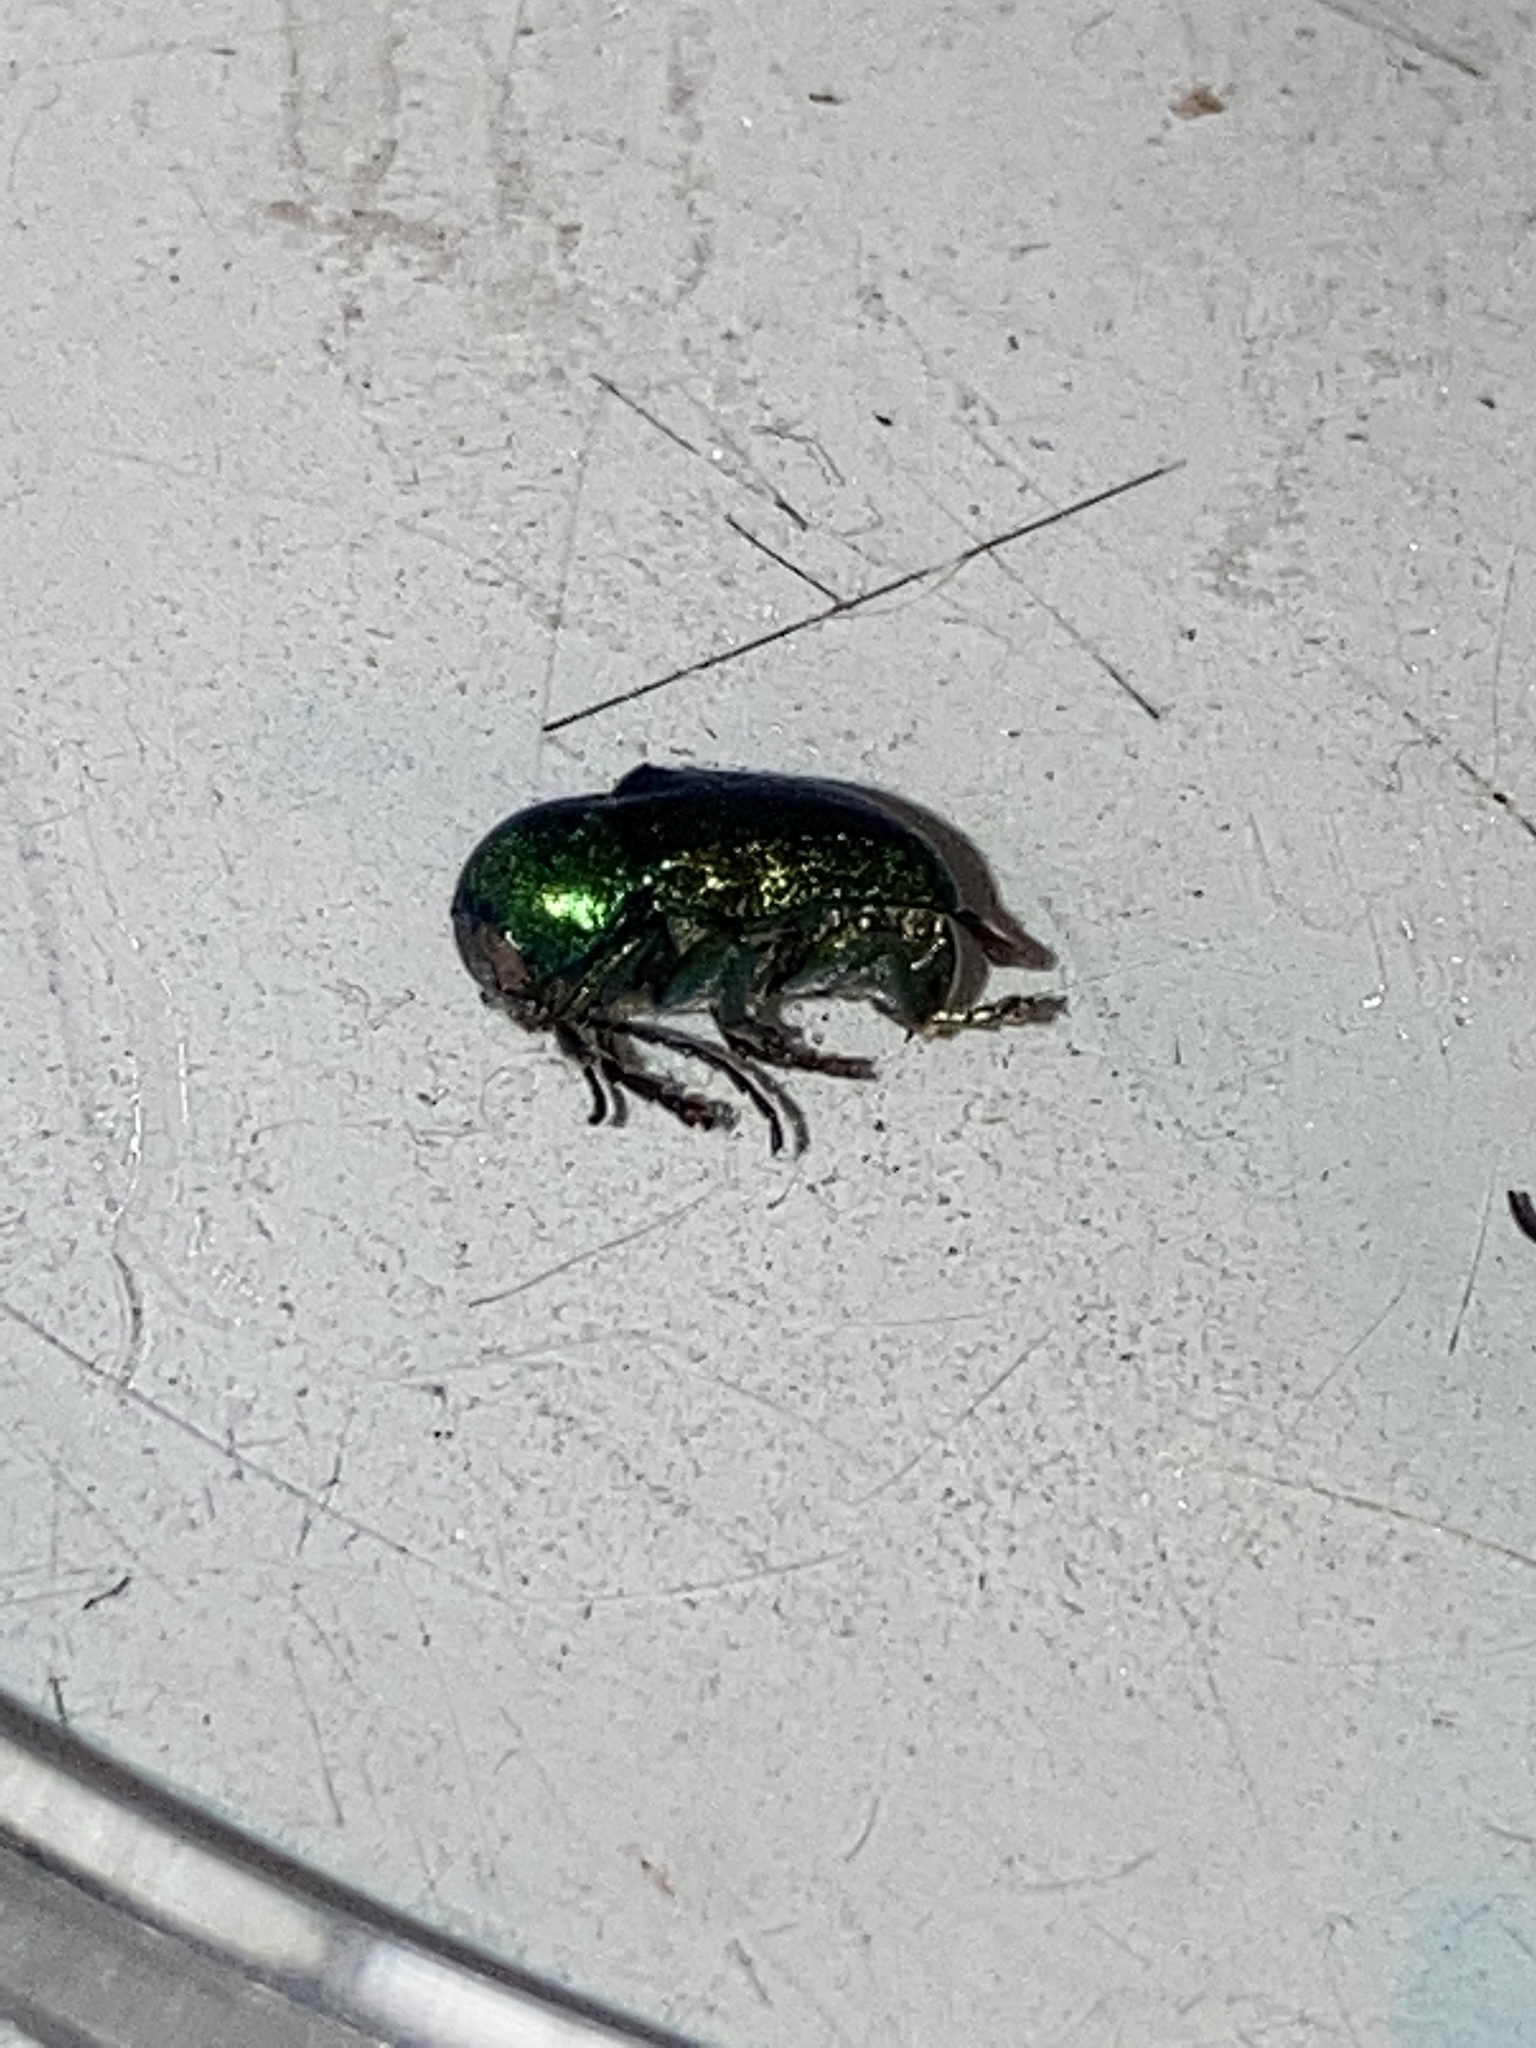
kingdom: Animalia
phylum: Arthropoda
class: Insecta
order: Coleoptera
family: Chrysomelidae
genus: Cryptocephalus
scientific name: Cryptocephalus sericeus
